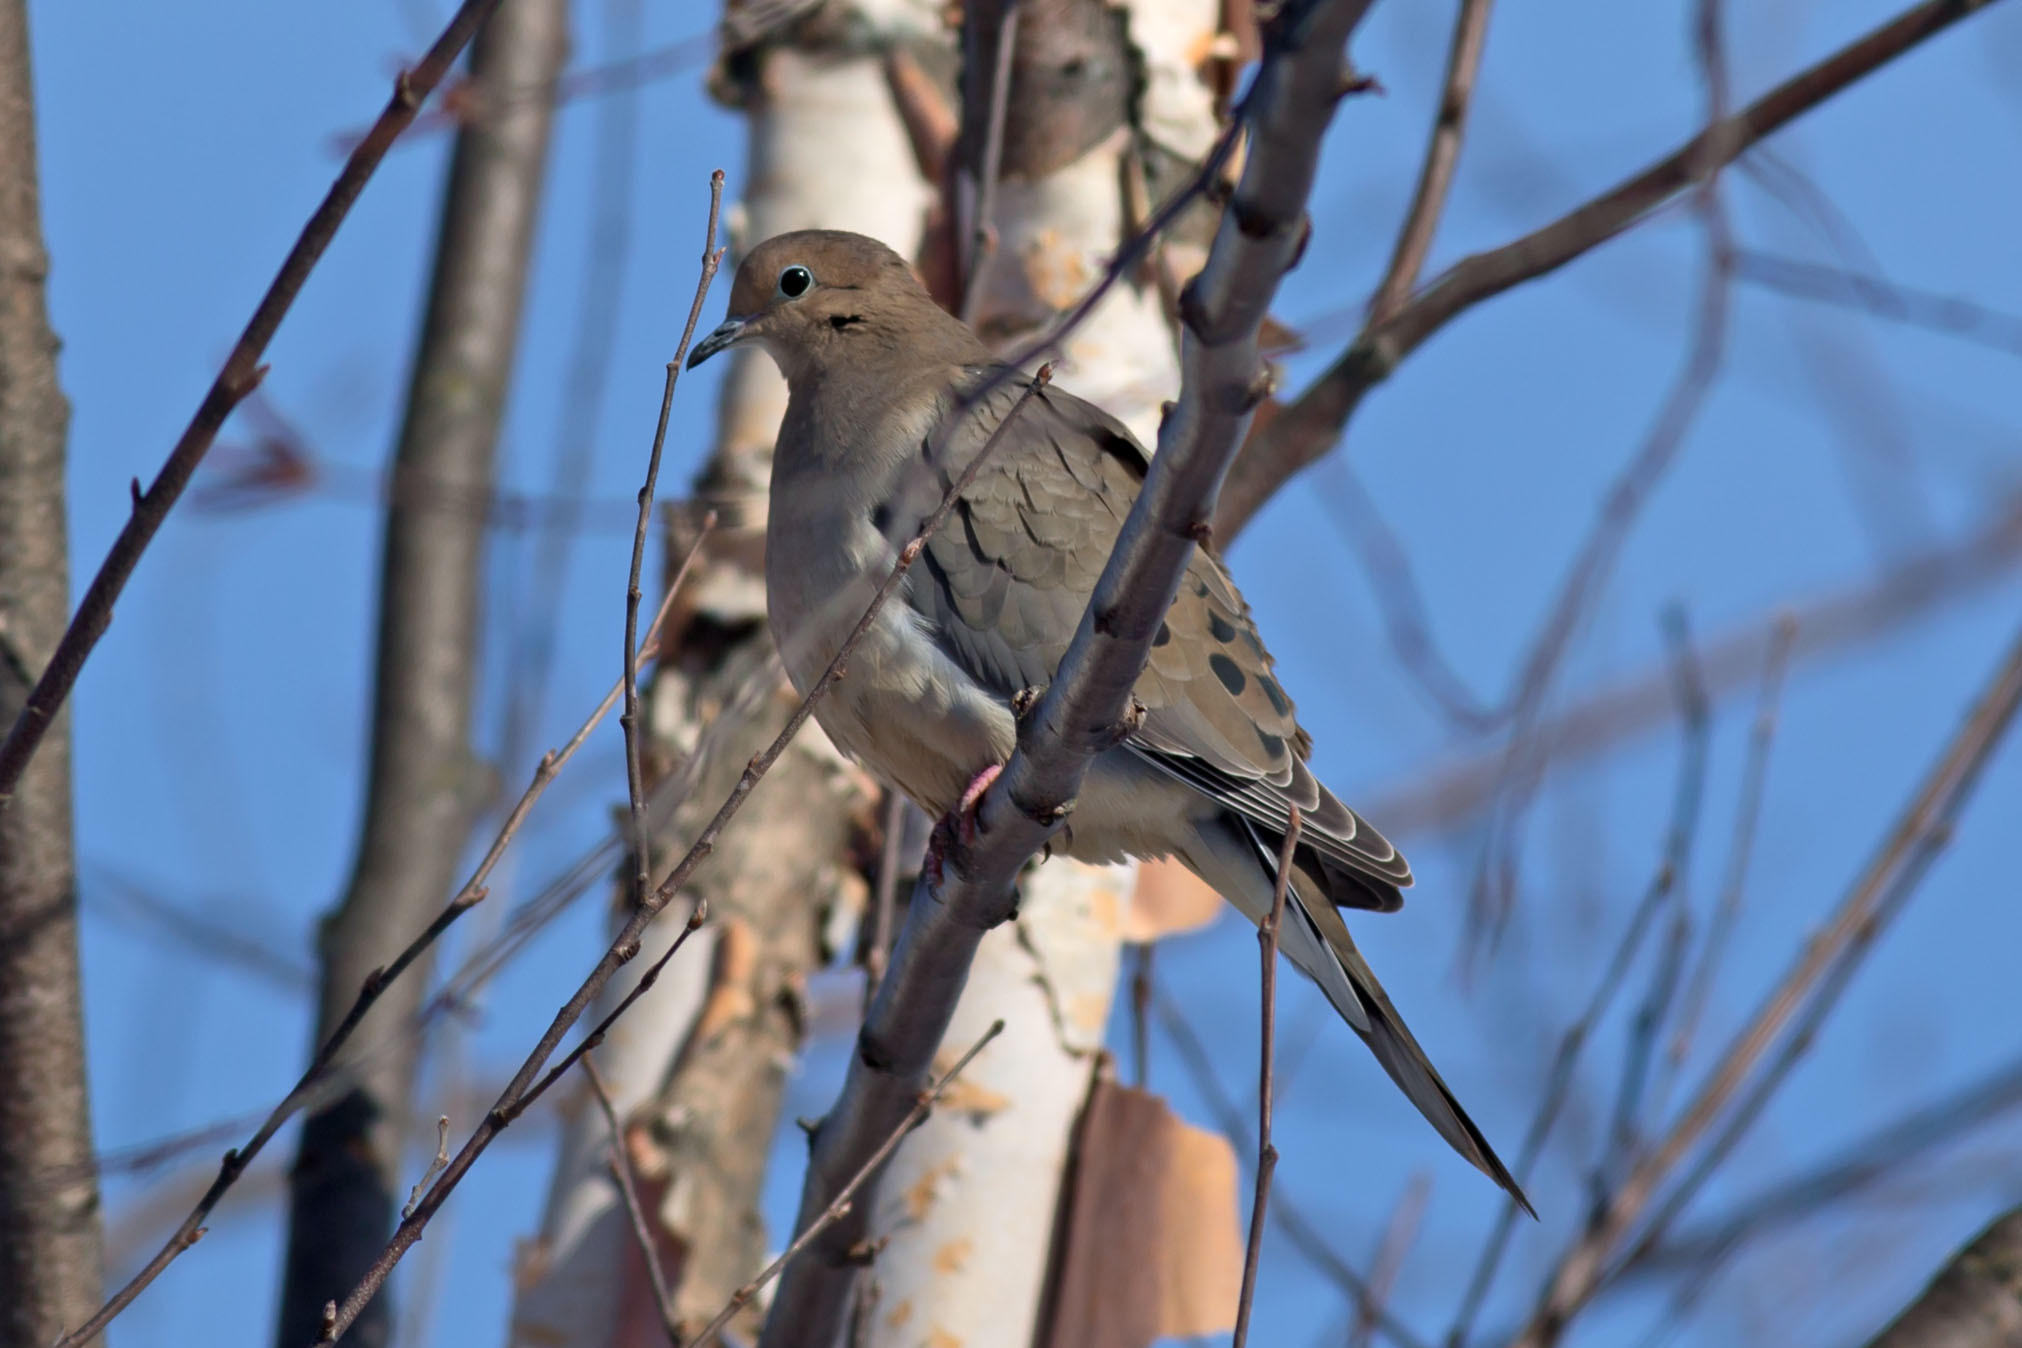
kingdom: Animalia
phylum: Chordata
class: Aves
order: Columbiformes
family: Columbidae
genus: Zenaida
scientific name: Zenaida macroura
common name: Mourning dove
